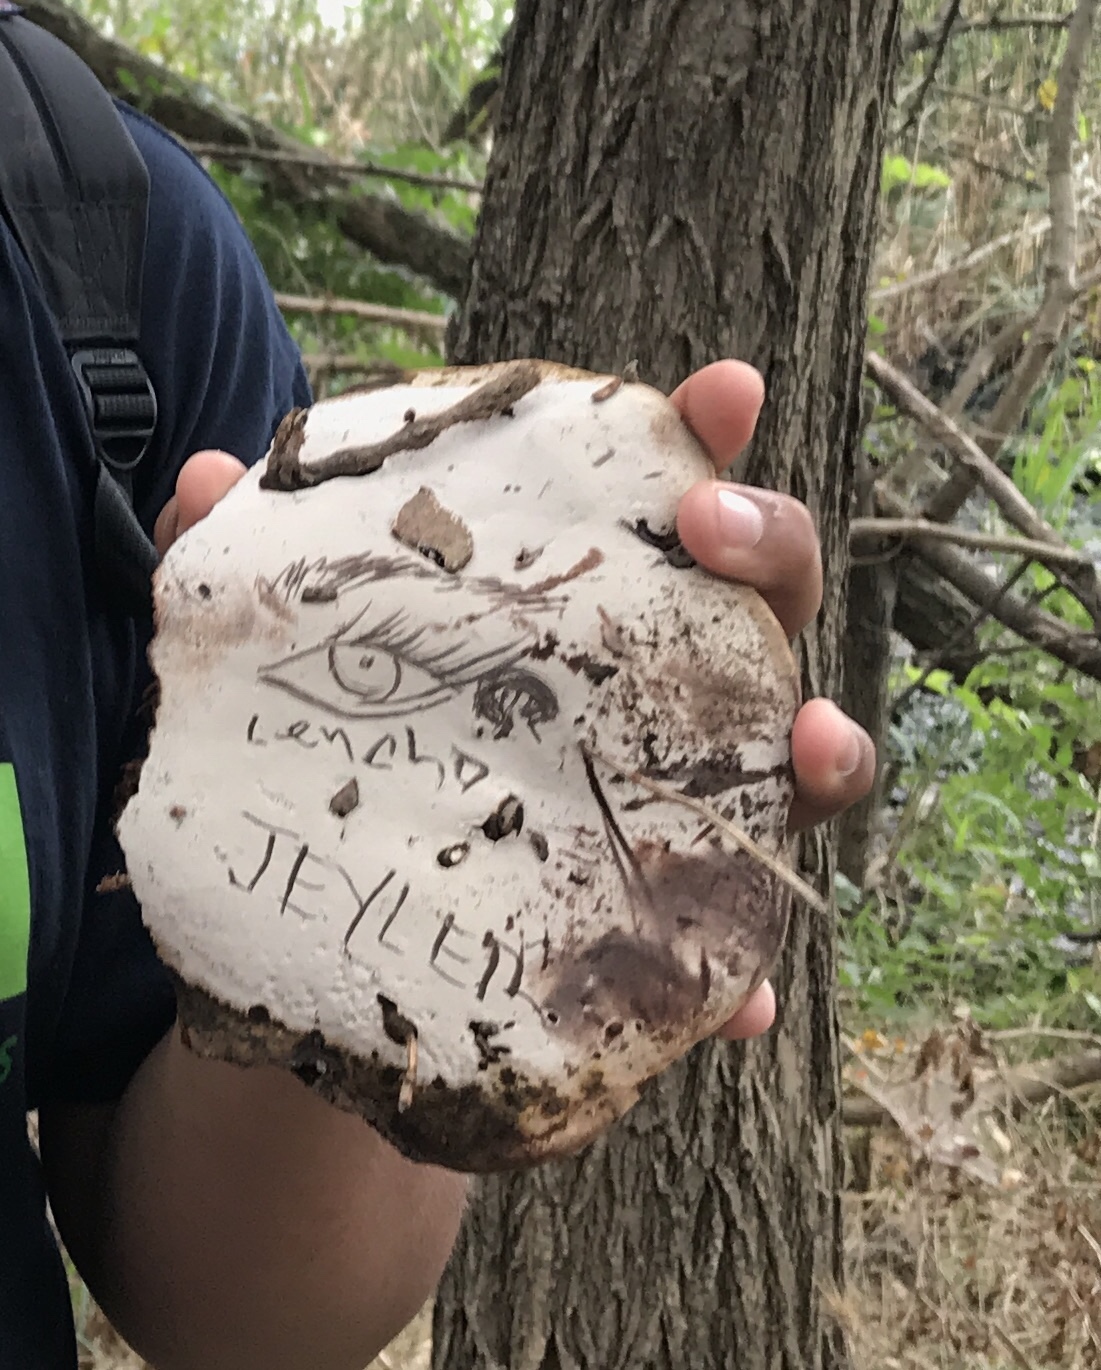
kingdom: Fungi
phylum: Basidiomycota
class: Agaricomycetes
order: Polyporales
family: Polyporaceae
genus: Ganoderma
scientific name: Ganoderma applanatum
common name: Artist's bracket
